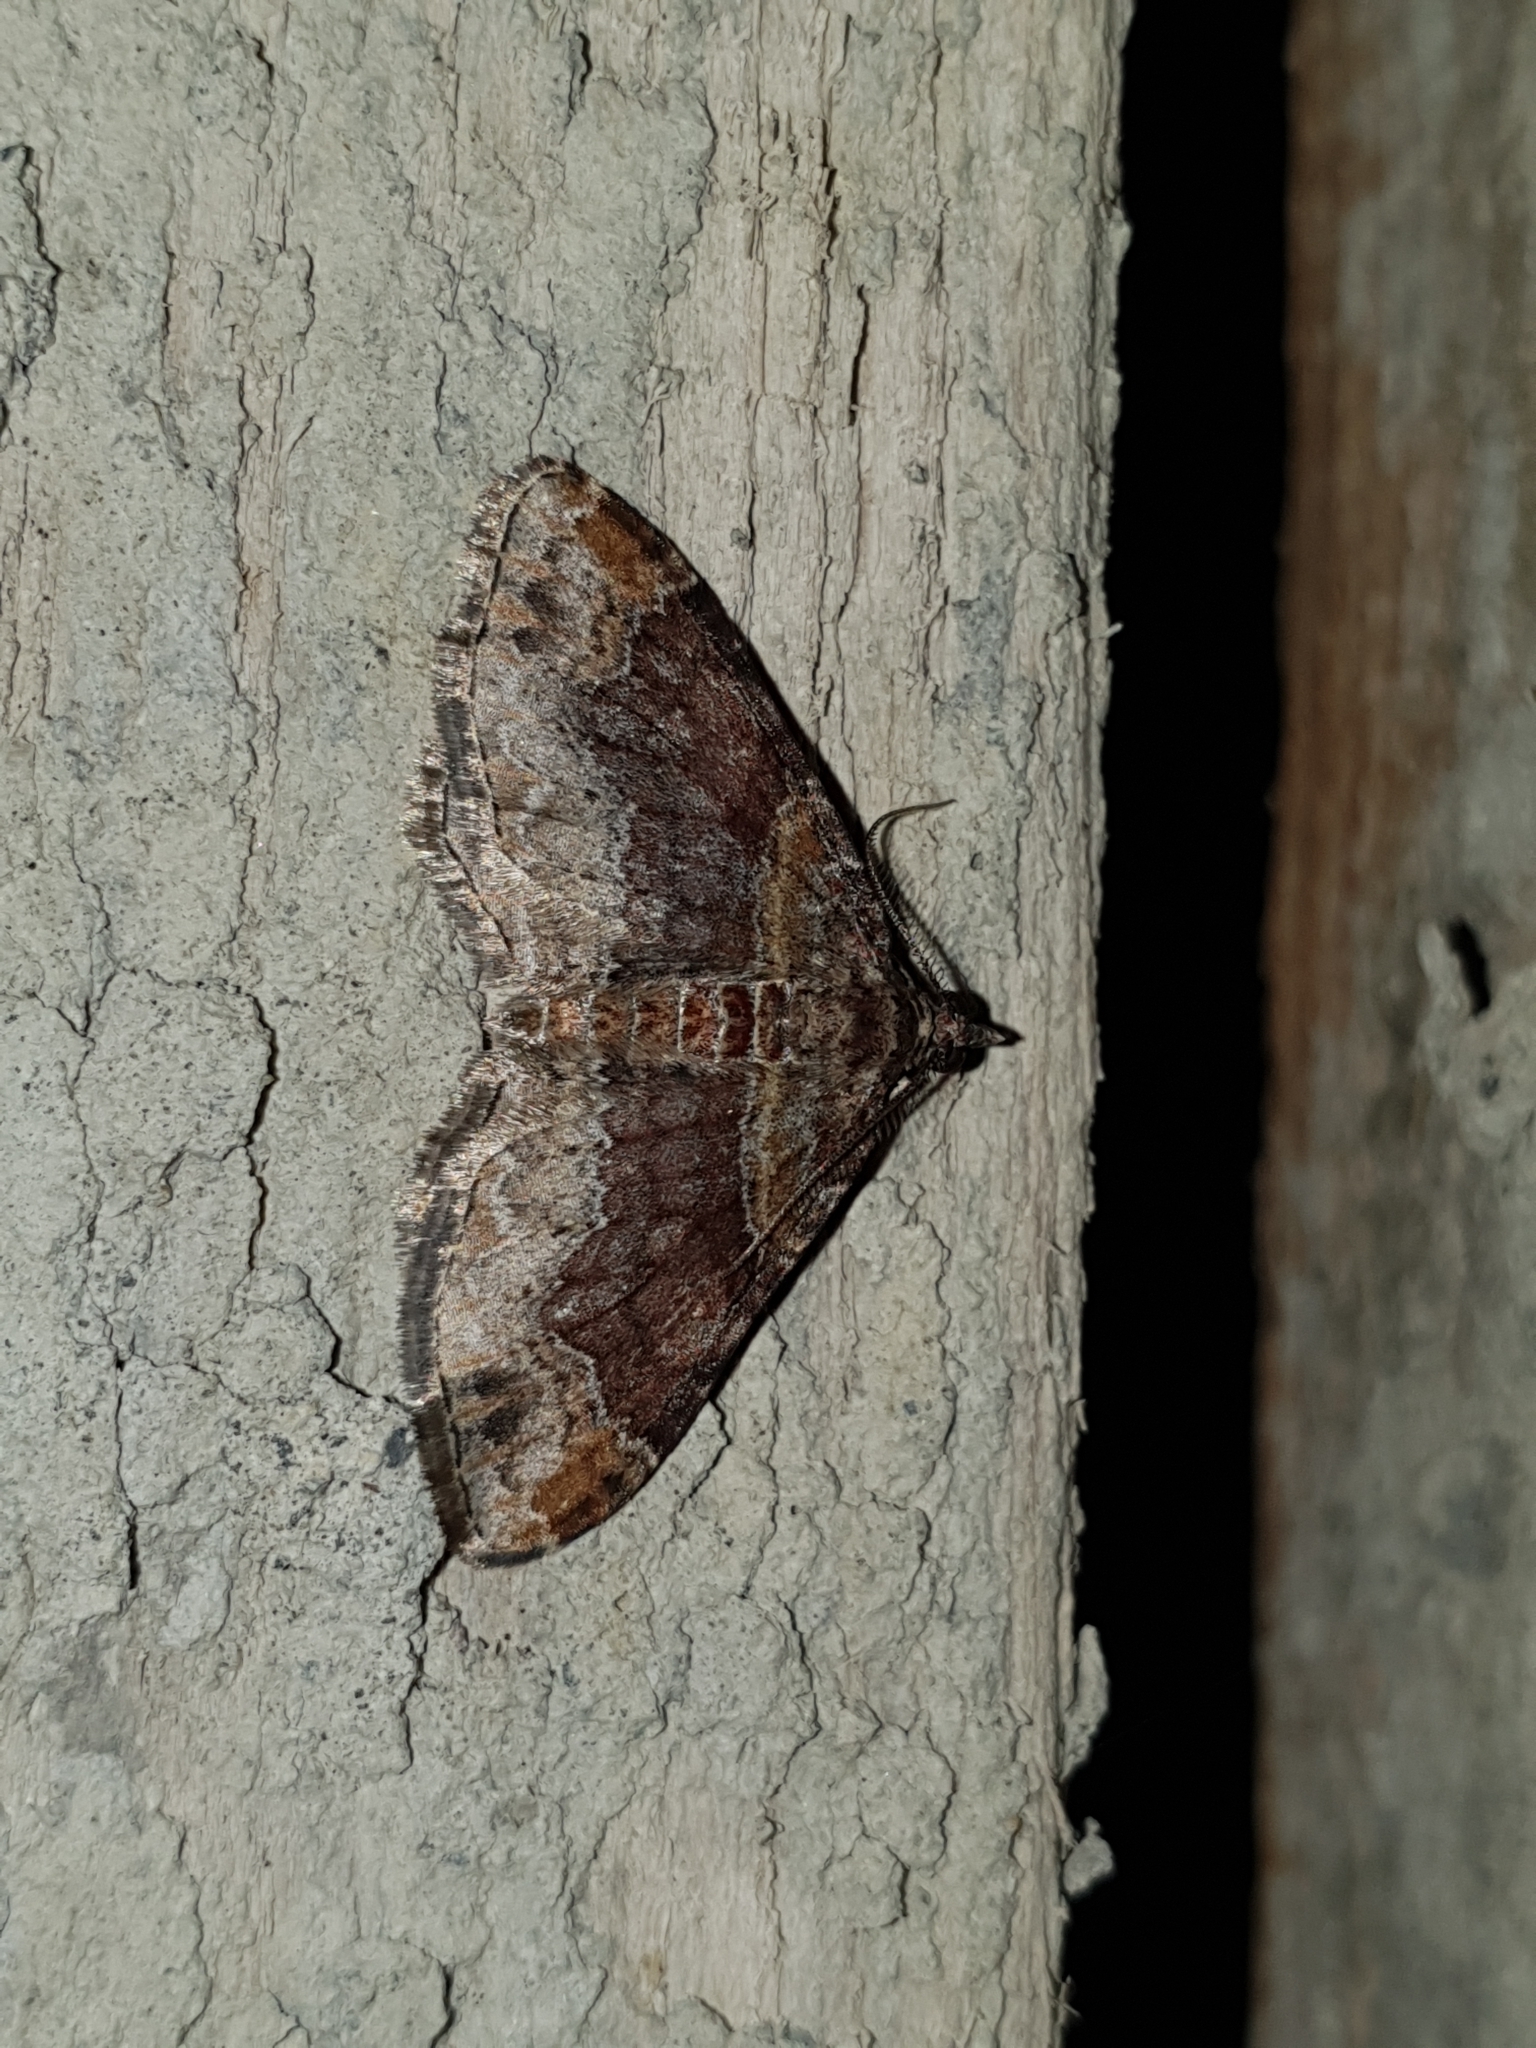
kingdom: Animalia
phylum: Arthropoda
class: Insecta
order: Lepidoptera
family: Geometridae
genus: Xanthorhoe
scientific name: Xanthorhoe ferrugata
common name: Dark-barred twin-spot carpet
